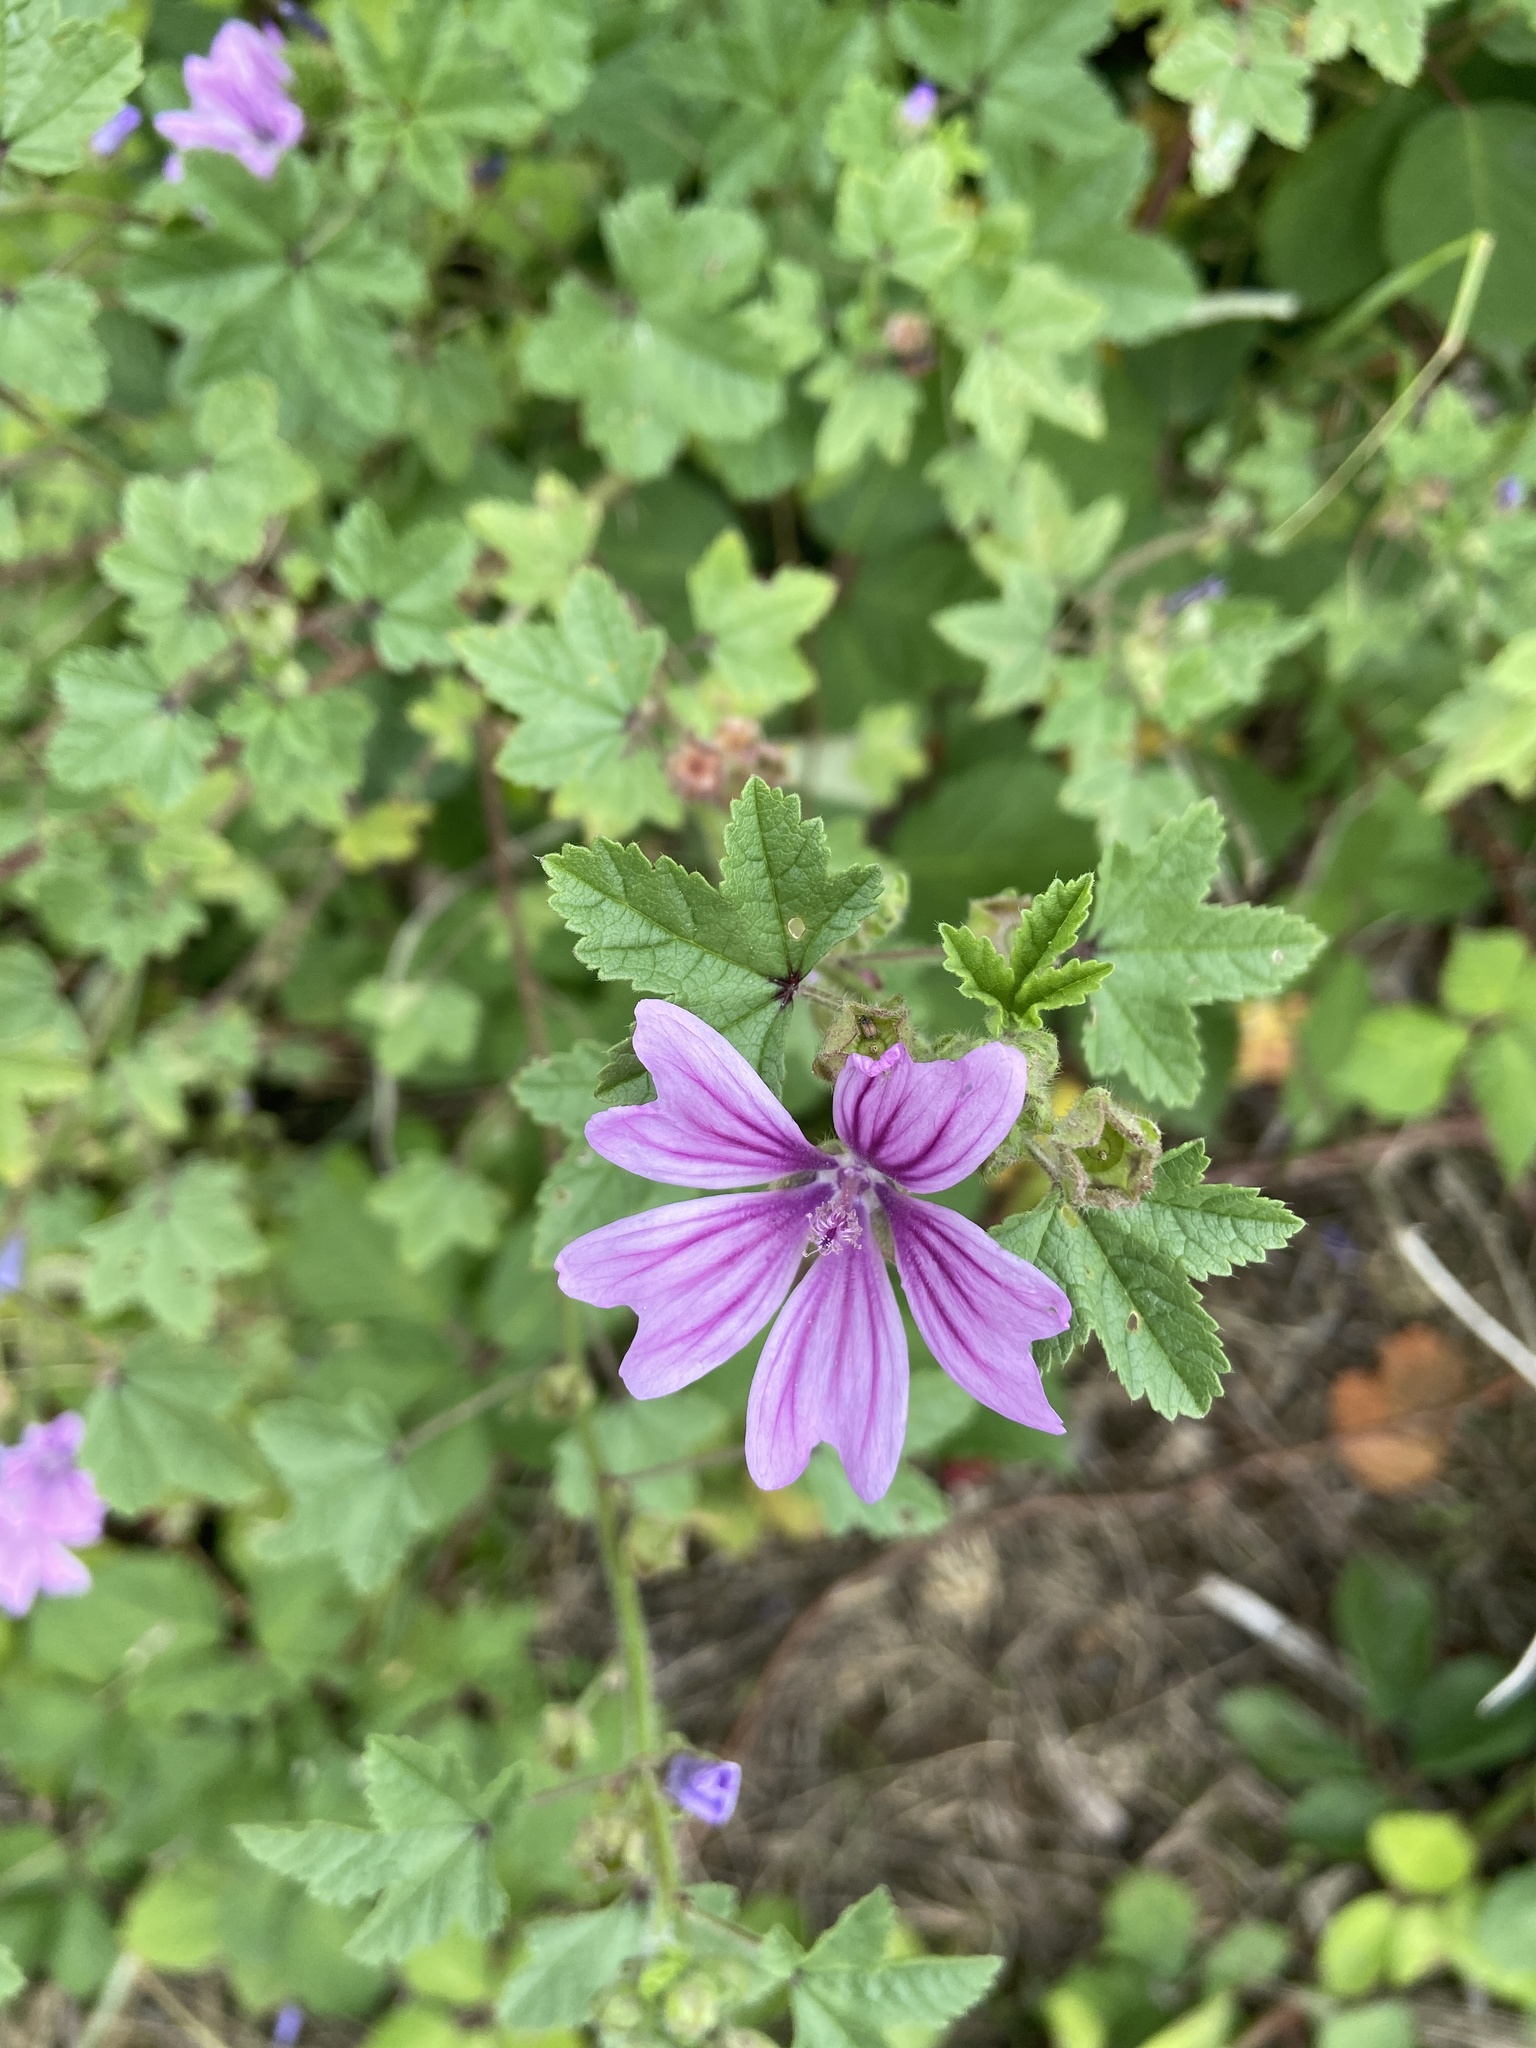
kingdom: Plantae
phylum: Tracheophyta
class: Magnoliopsida
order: Malvales
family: Malvaceae
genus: Malva
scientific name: Malva sylvestris
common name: Common mallow
